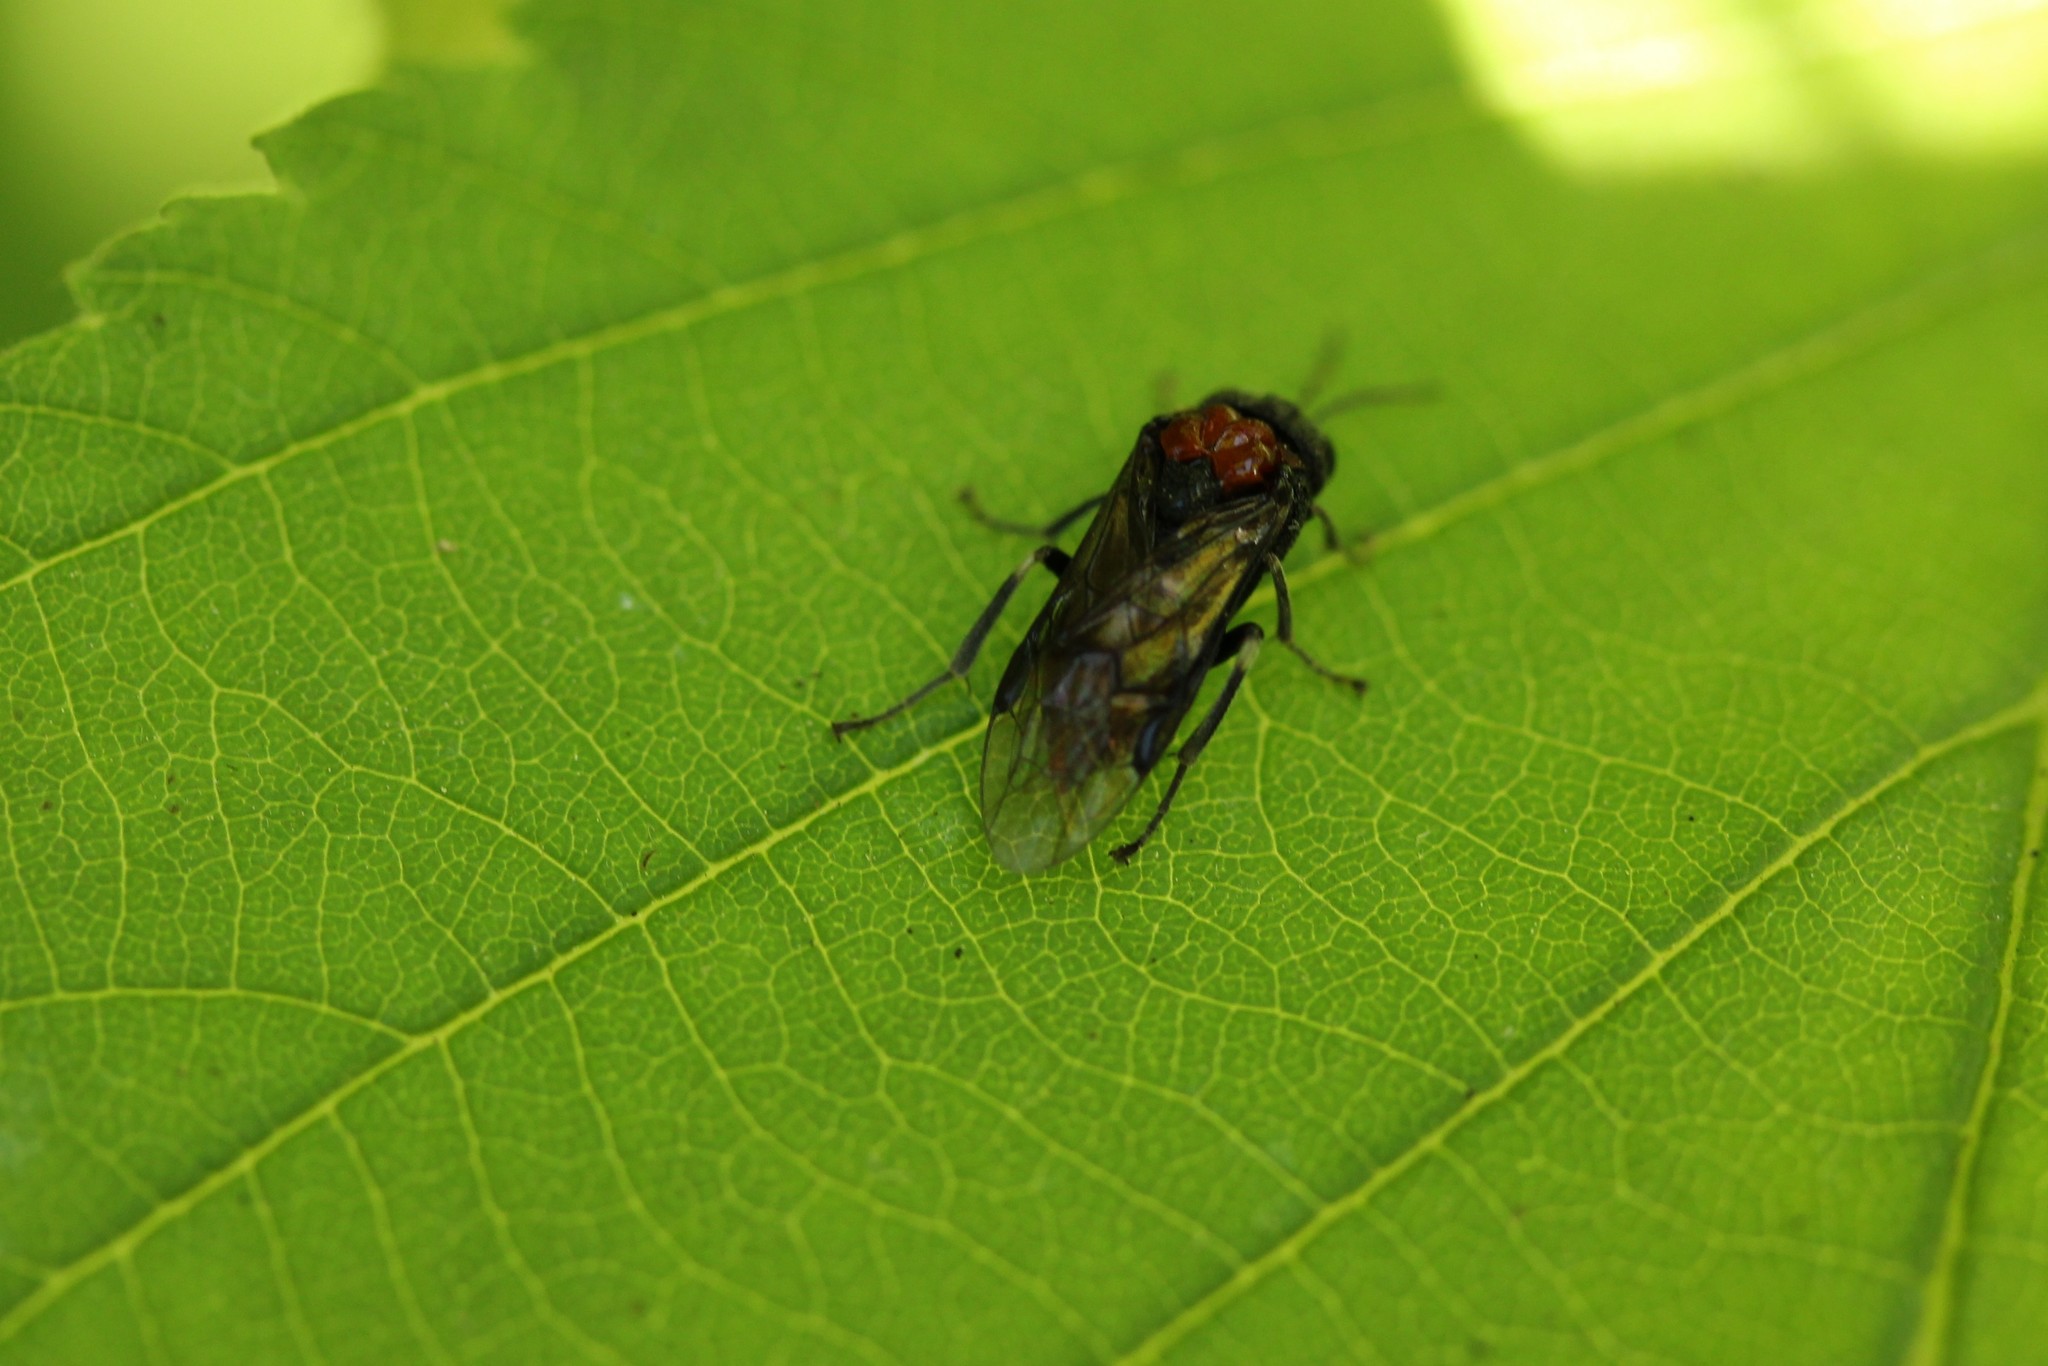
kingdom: Animalia
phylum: Arthropoda
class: Insecta
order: Hymenoptera
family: Tenthredinidae
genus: Eriocampa
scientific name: Eriocampa ovata
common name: Alder wooly sawfly
